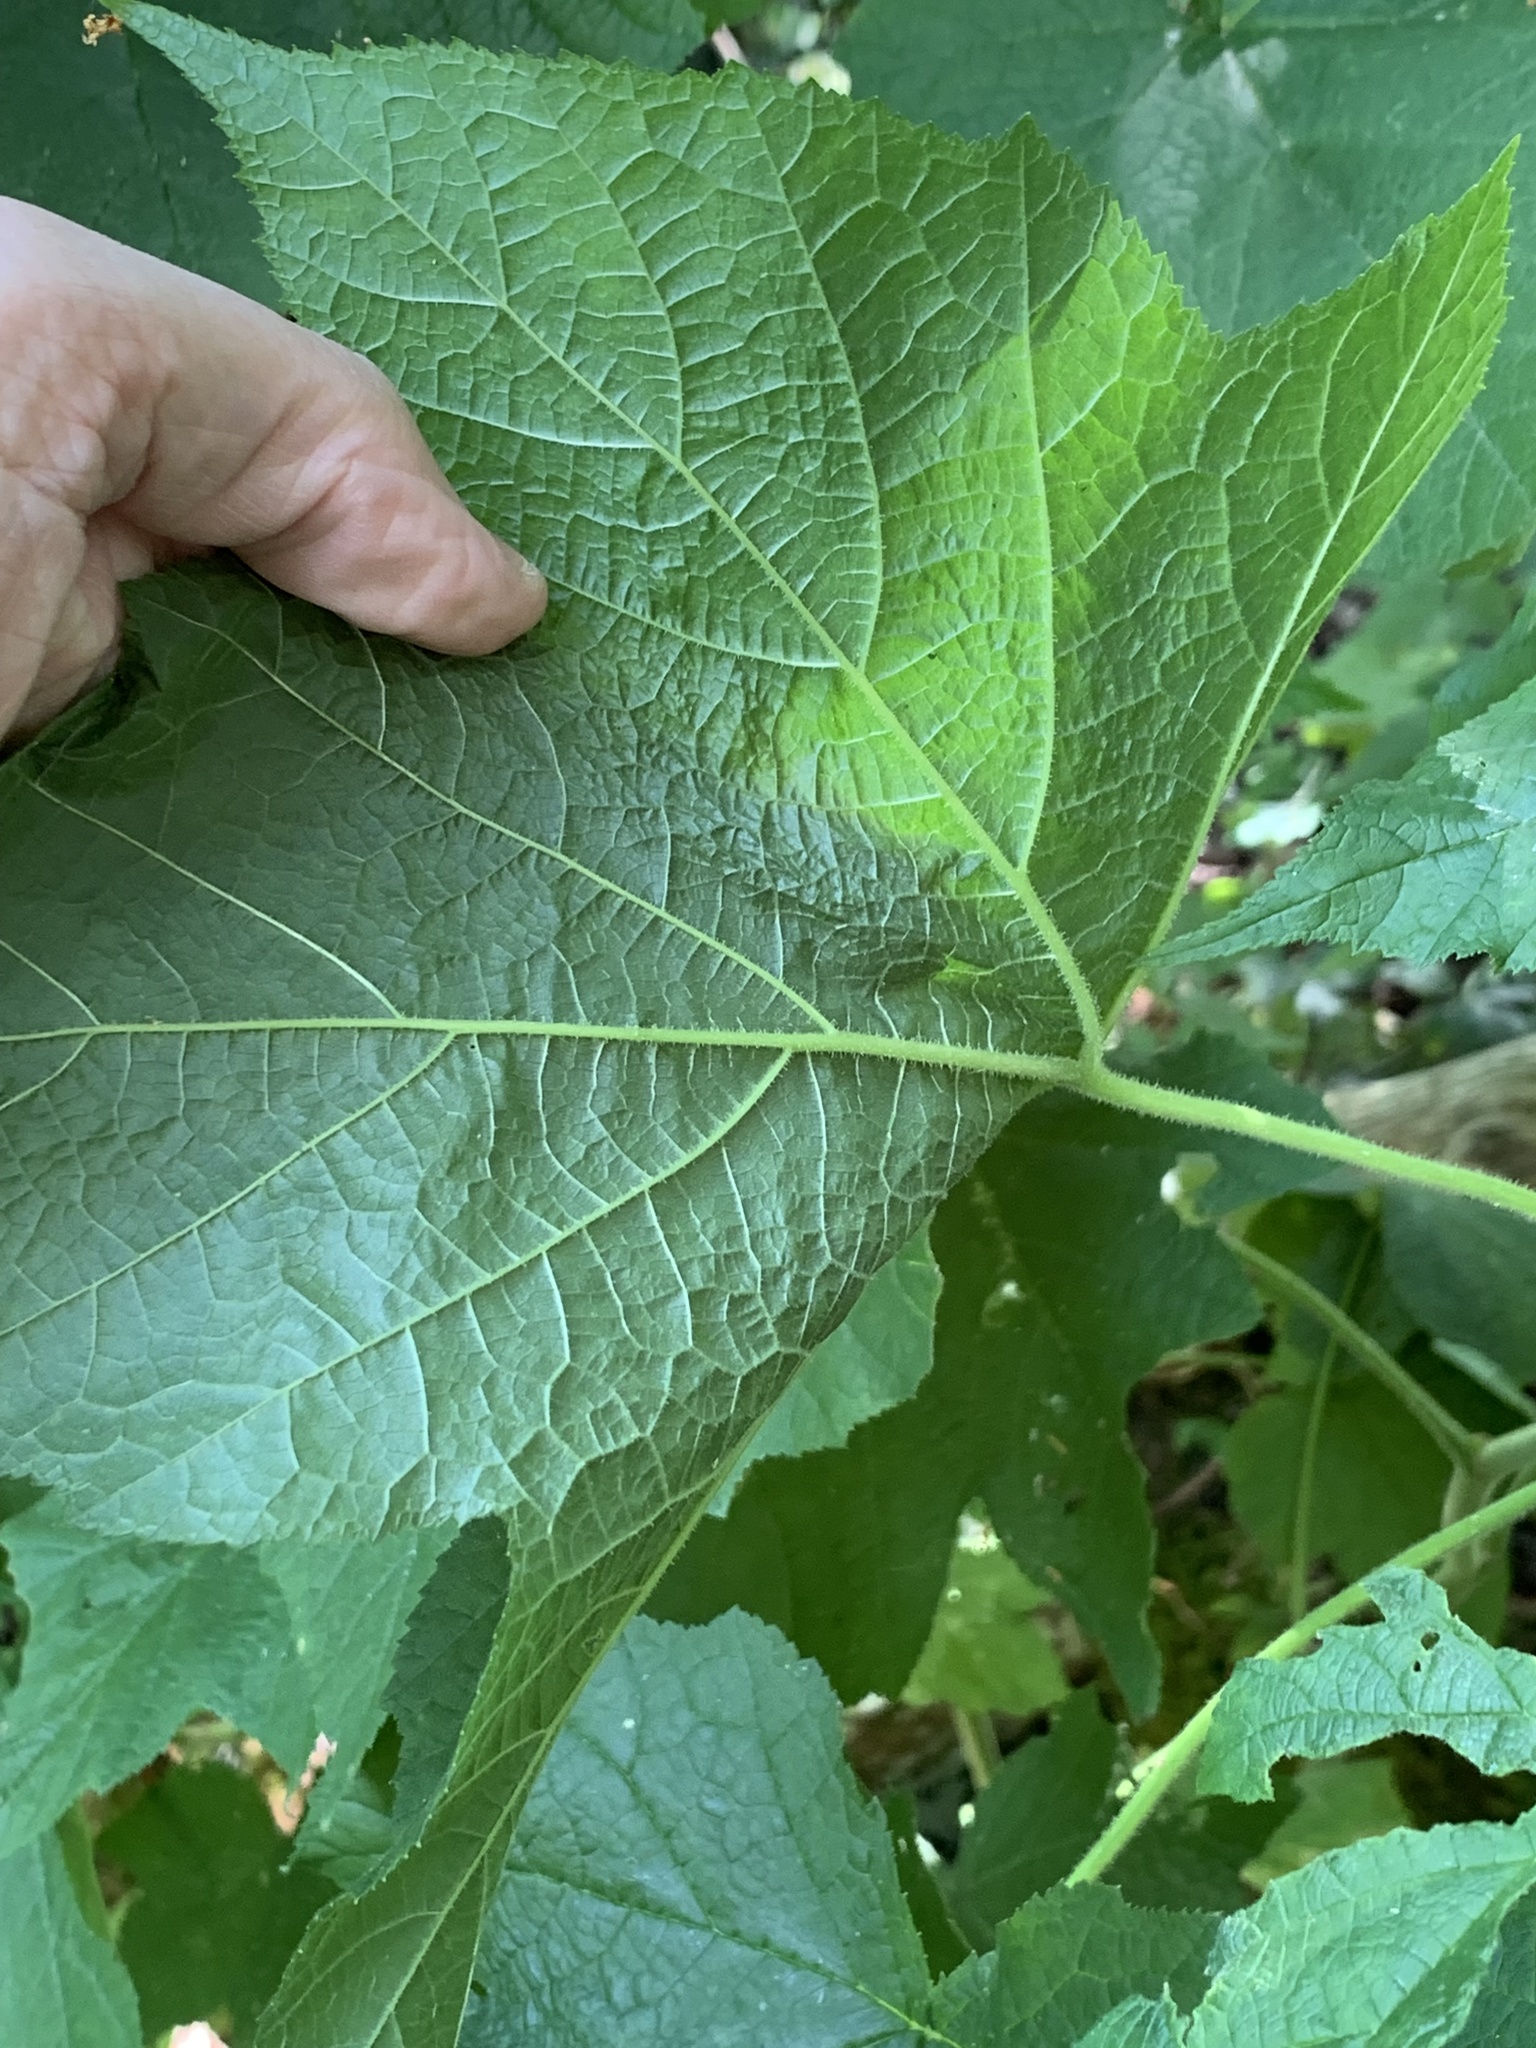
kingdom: Plantae
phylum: Tracheophyta
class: Magnoliopsida
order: Rosales
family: Rosaceae
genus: Rubus
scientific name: Rubus odoratus
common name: Purple-flowered raspberry
